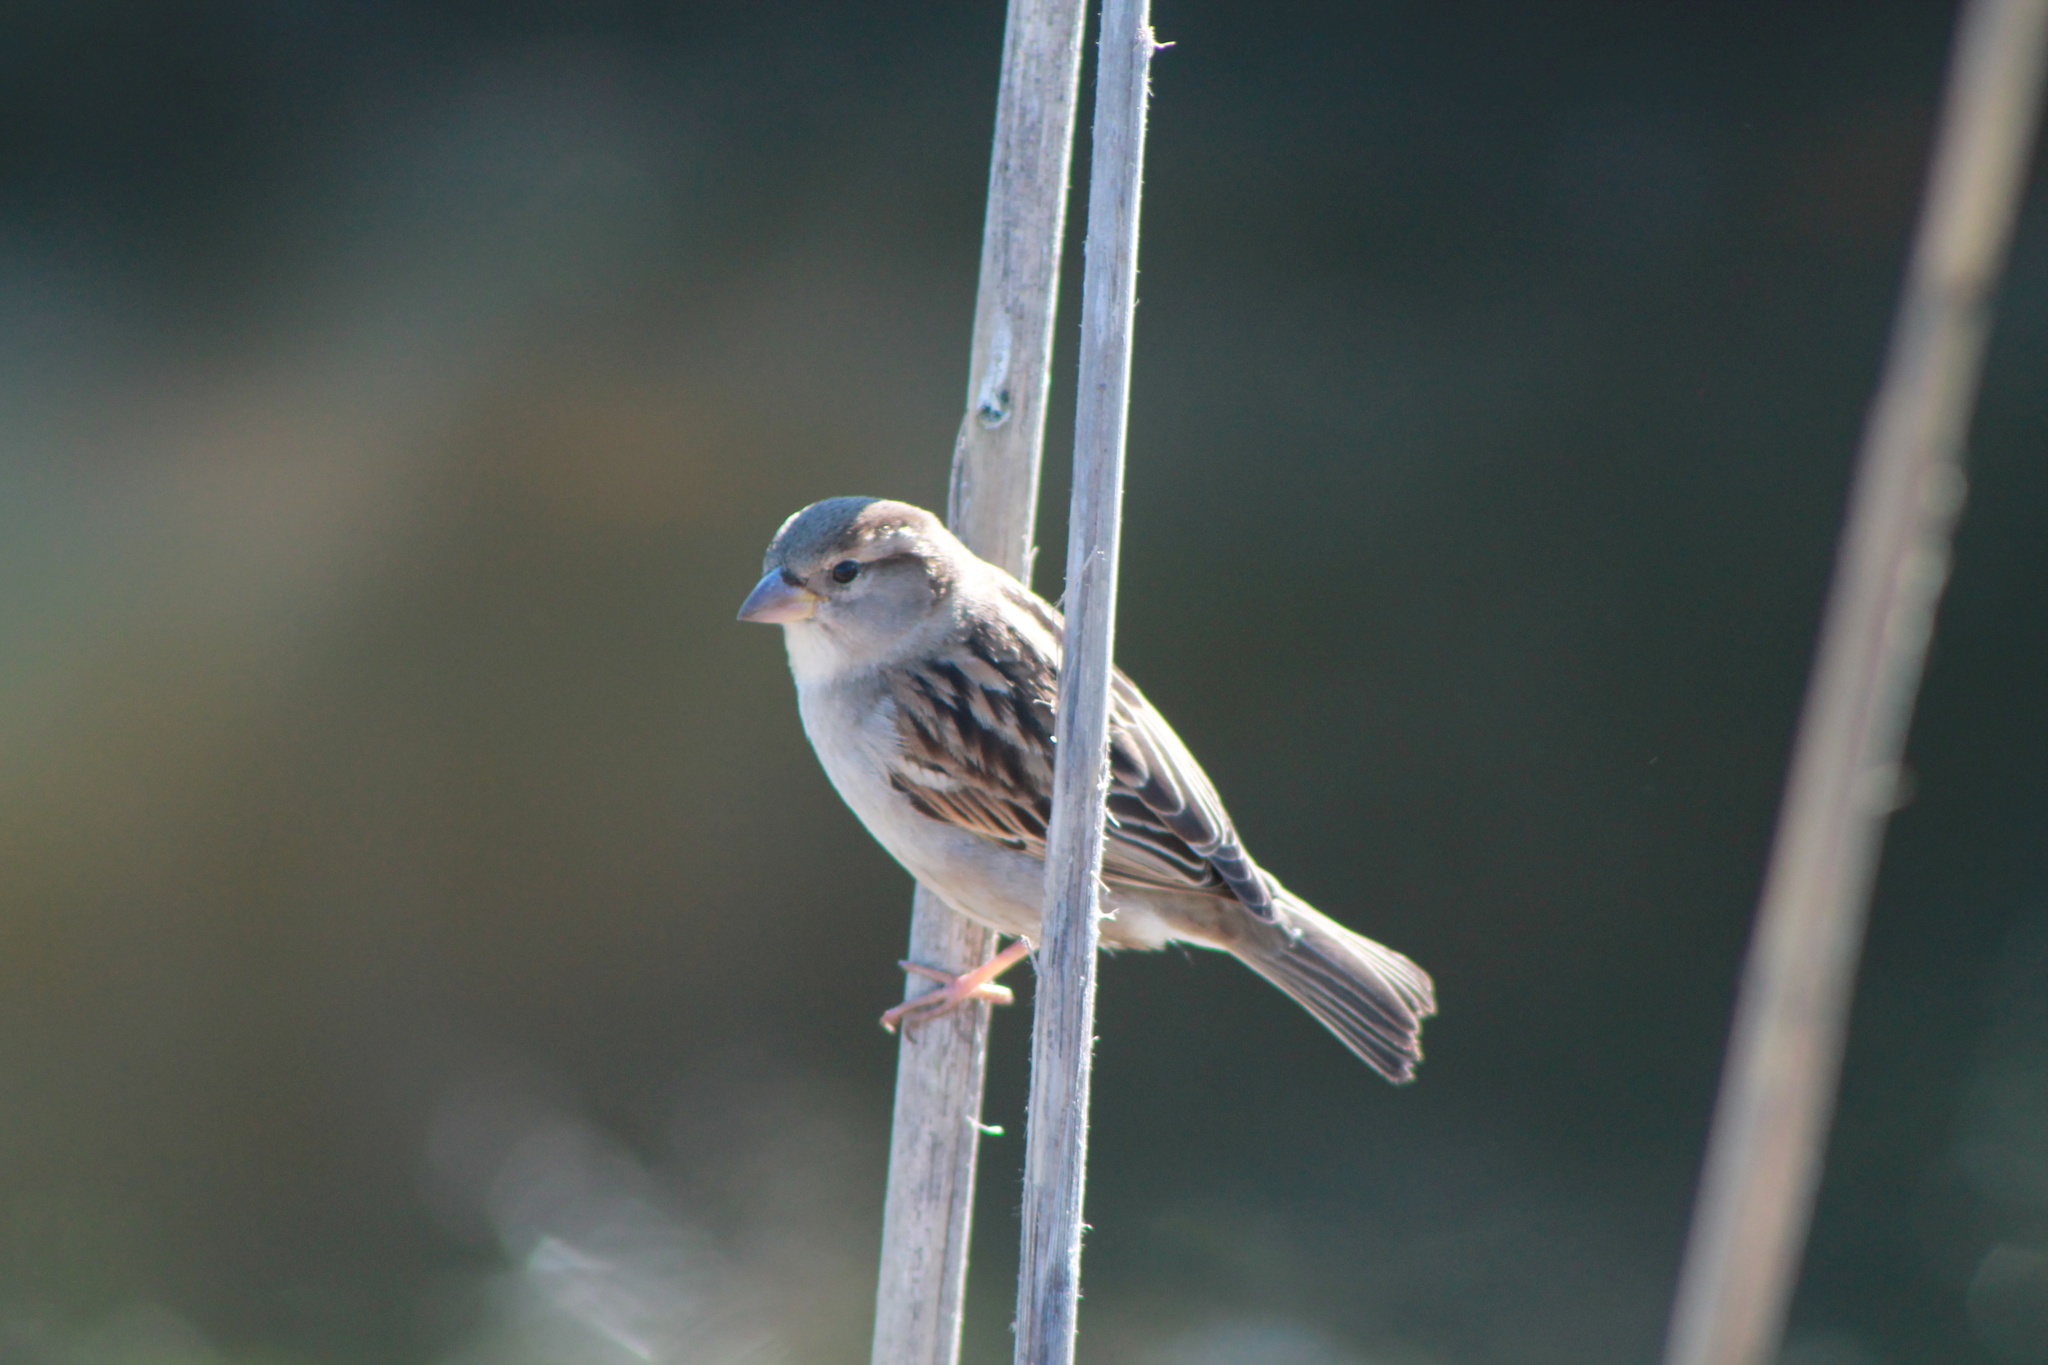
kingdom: Animalia
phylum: Chordata
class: Aves
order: Passeriformes
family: Passeridae
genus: Passer
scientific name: Passer domesticus
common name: House sparrow
